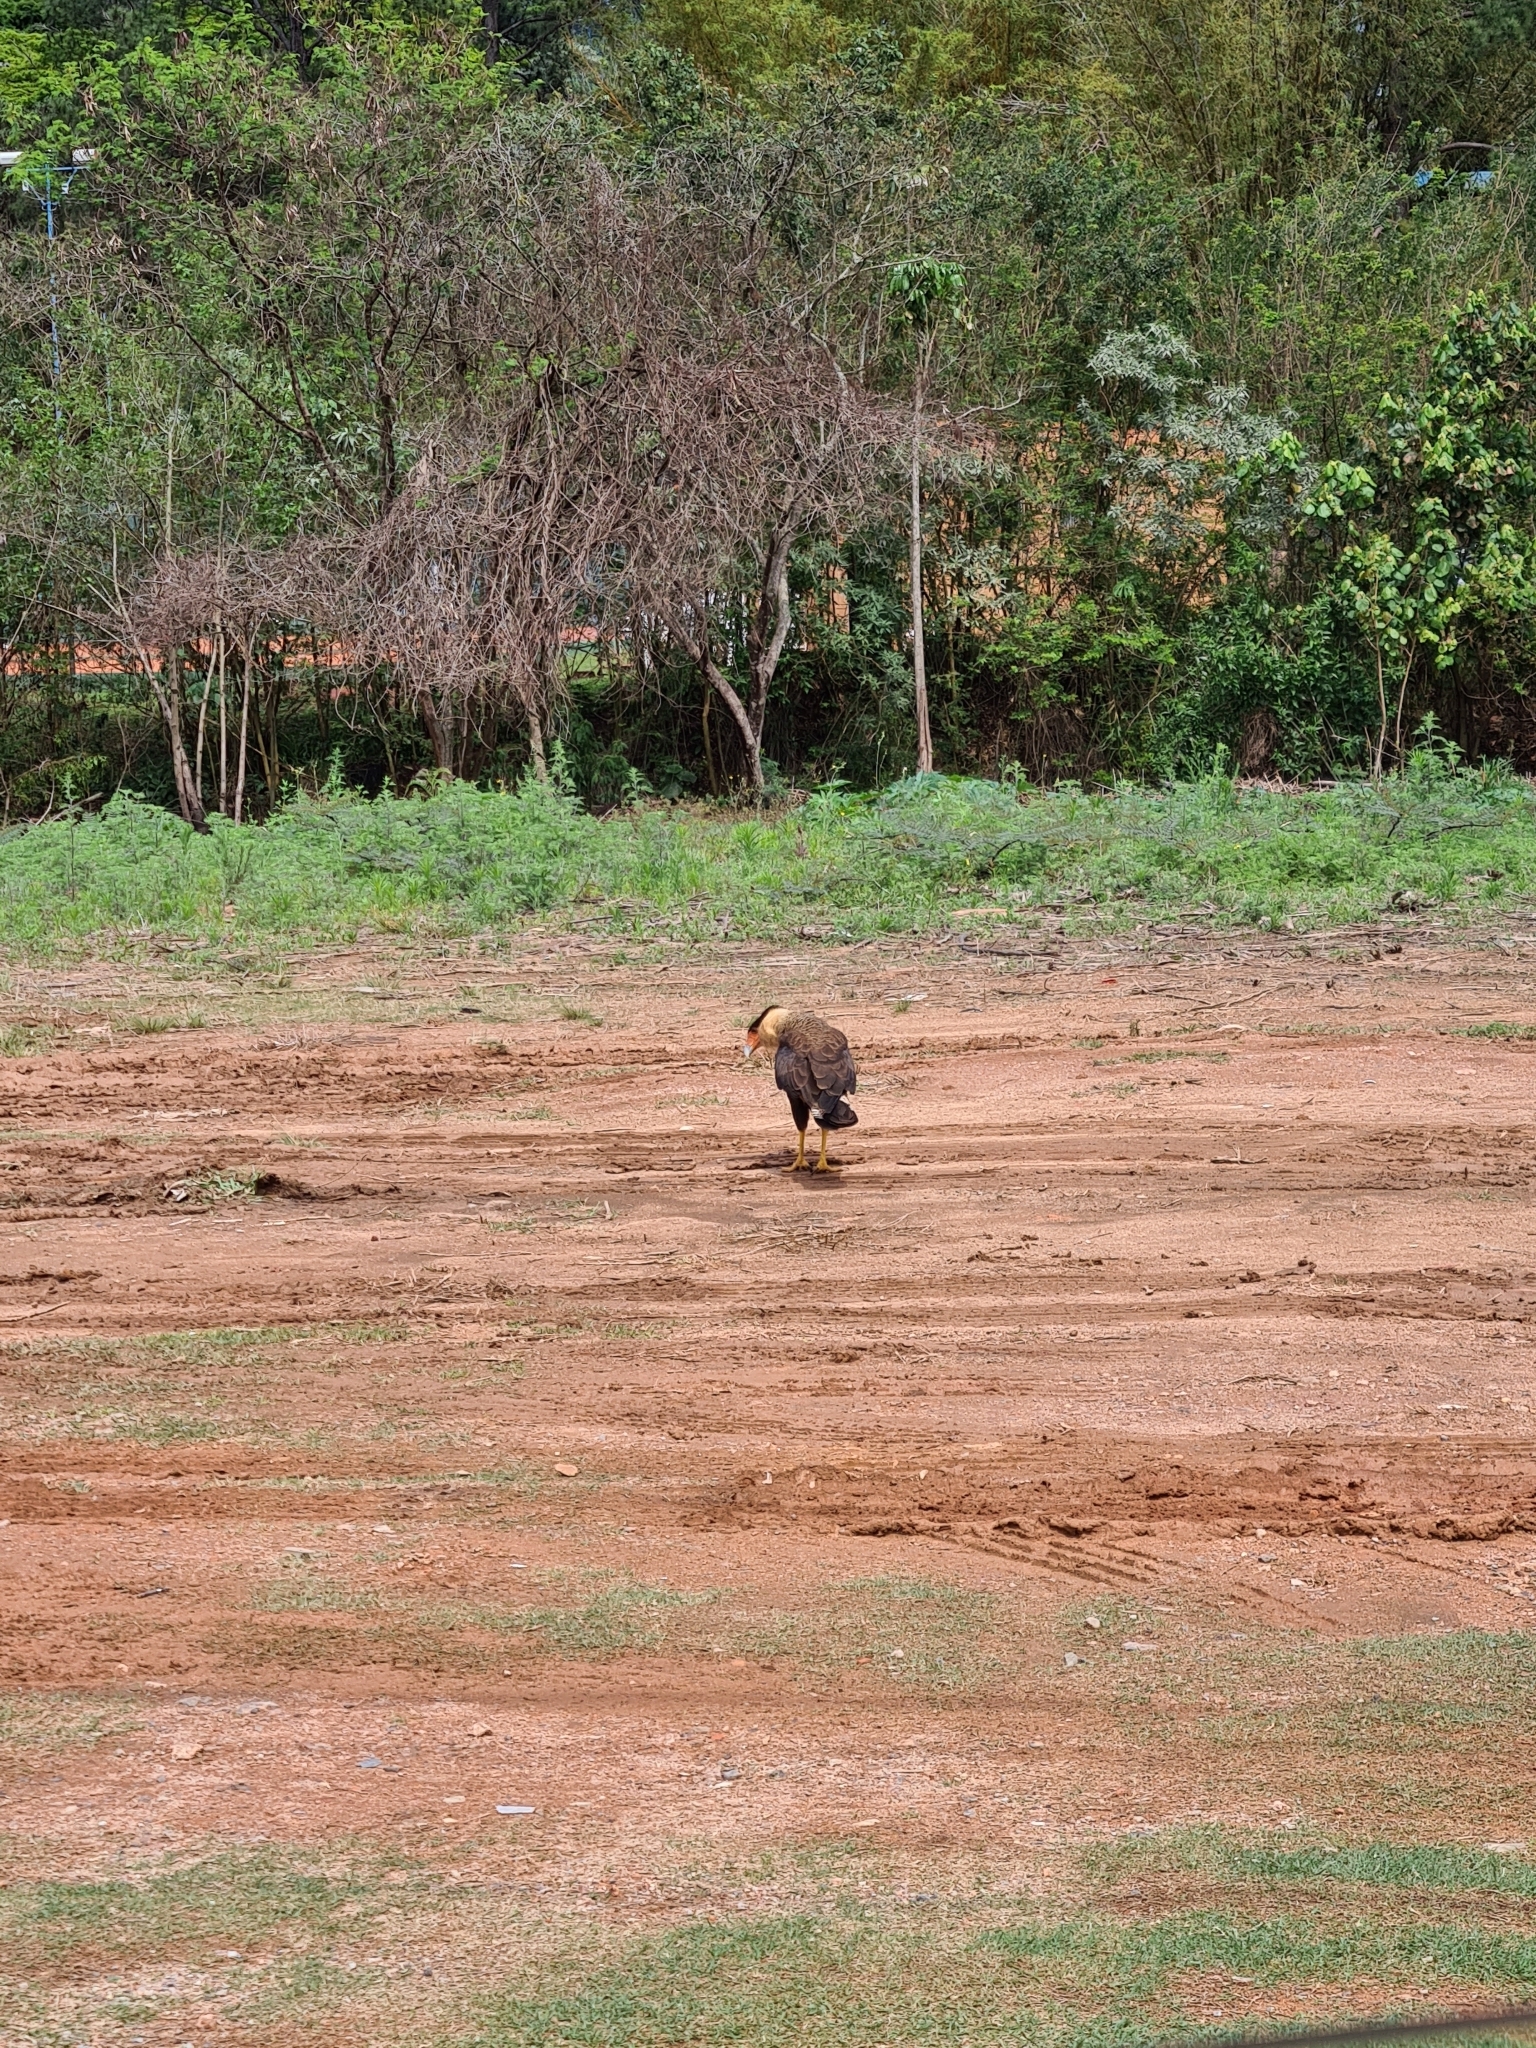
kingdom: Animalia
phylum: Chordata
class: Aves
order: Falconiformes
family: Falconidae
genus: Caracara
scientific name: Caracara plancus
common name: Southern caracara
